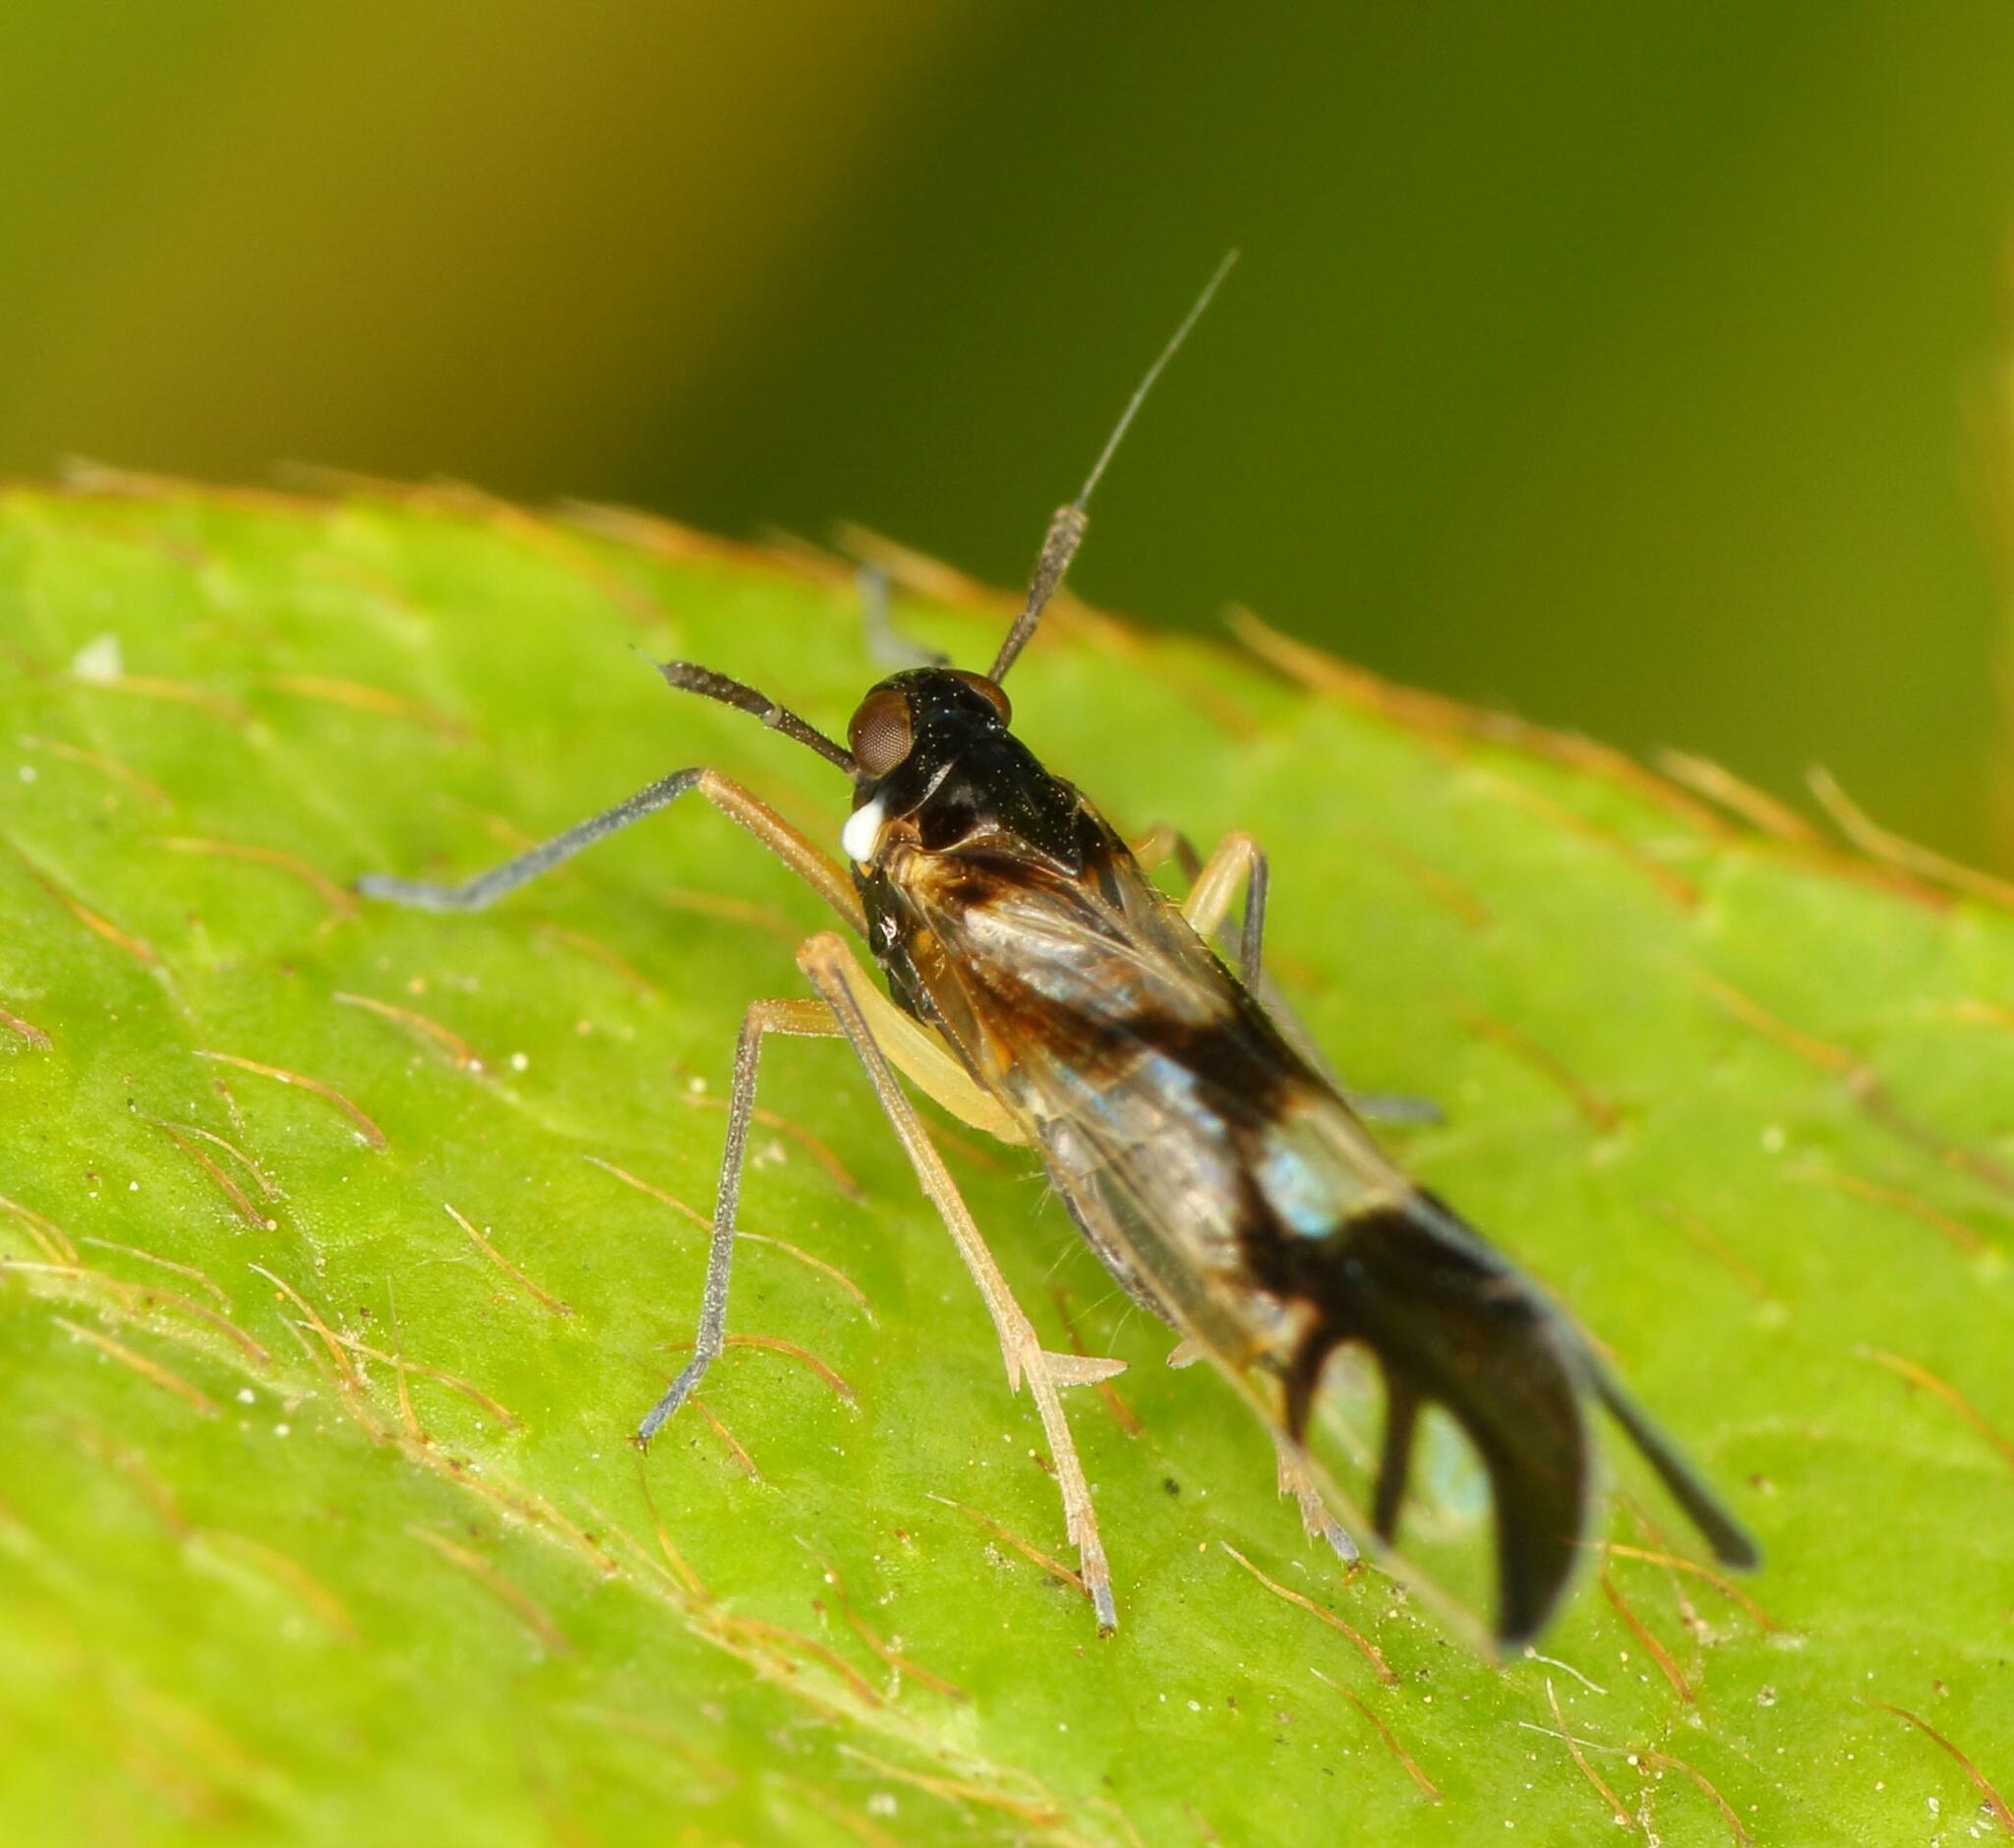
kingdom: Animalia
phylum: Arthropoda
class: Insecta
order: Hemiptera
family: Delphacidae
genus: Hapalomelus
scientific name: Hapalomelus flavipes
